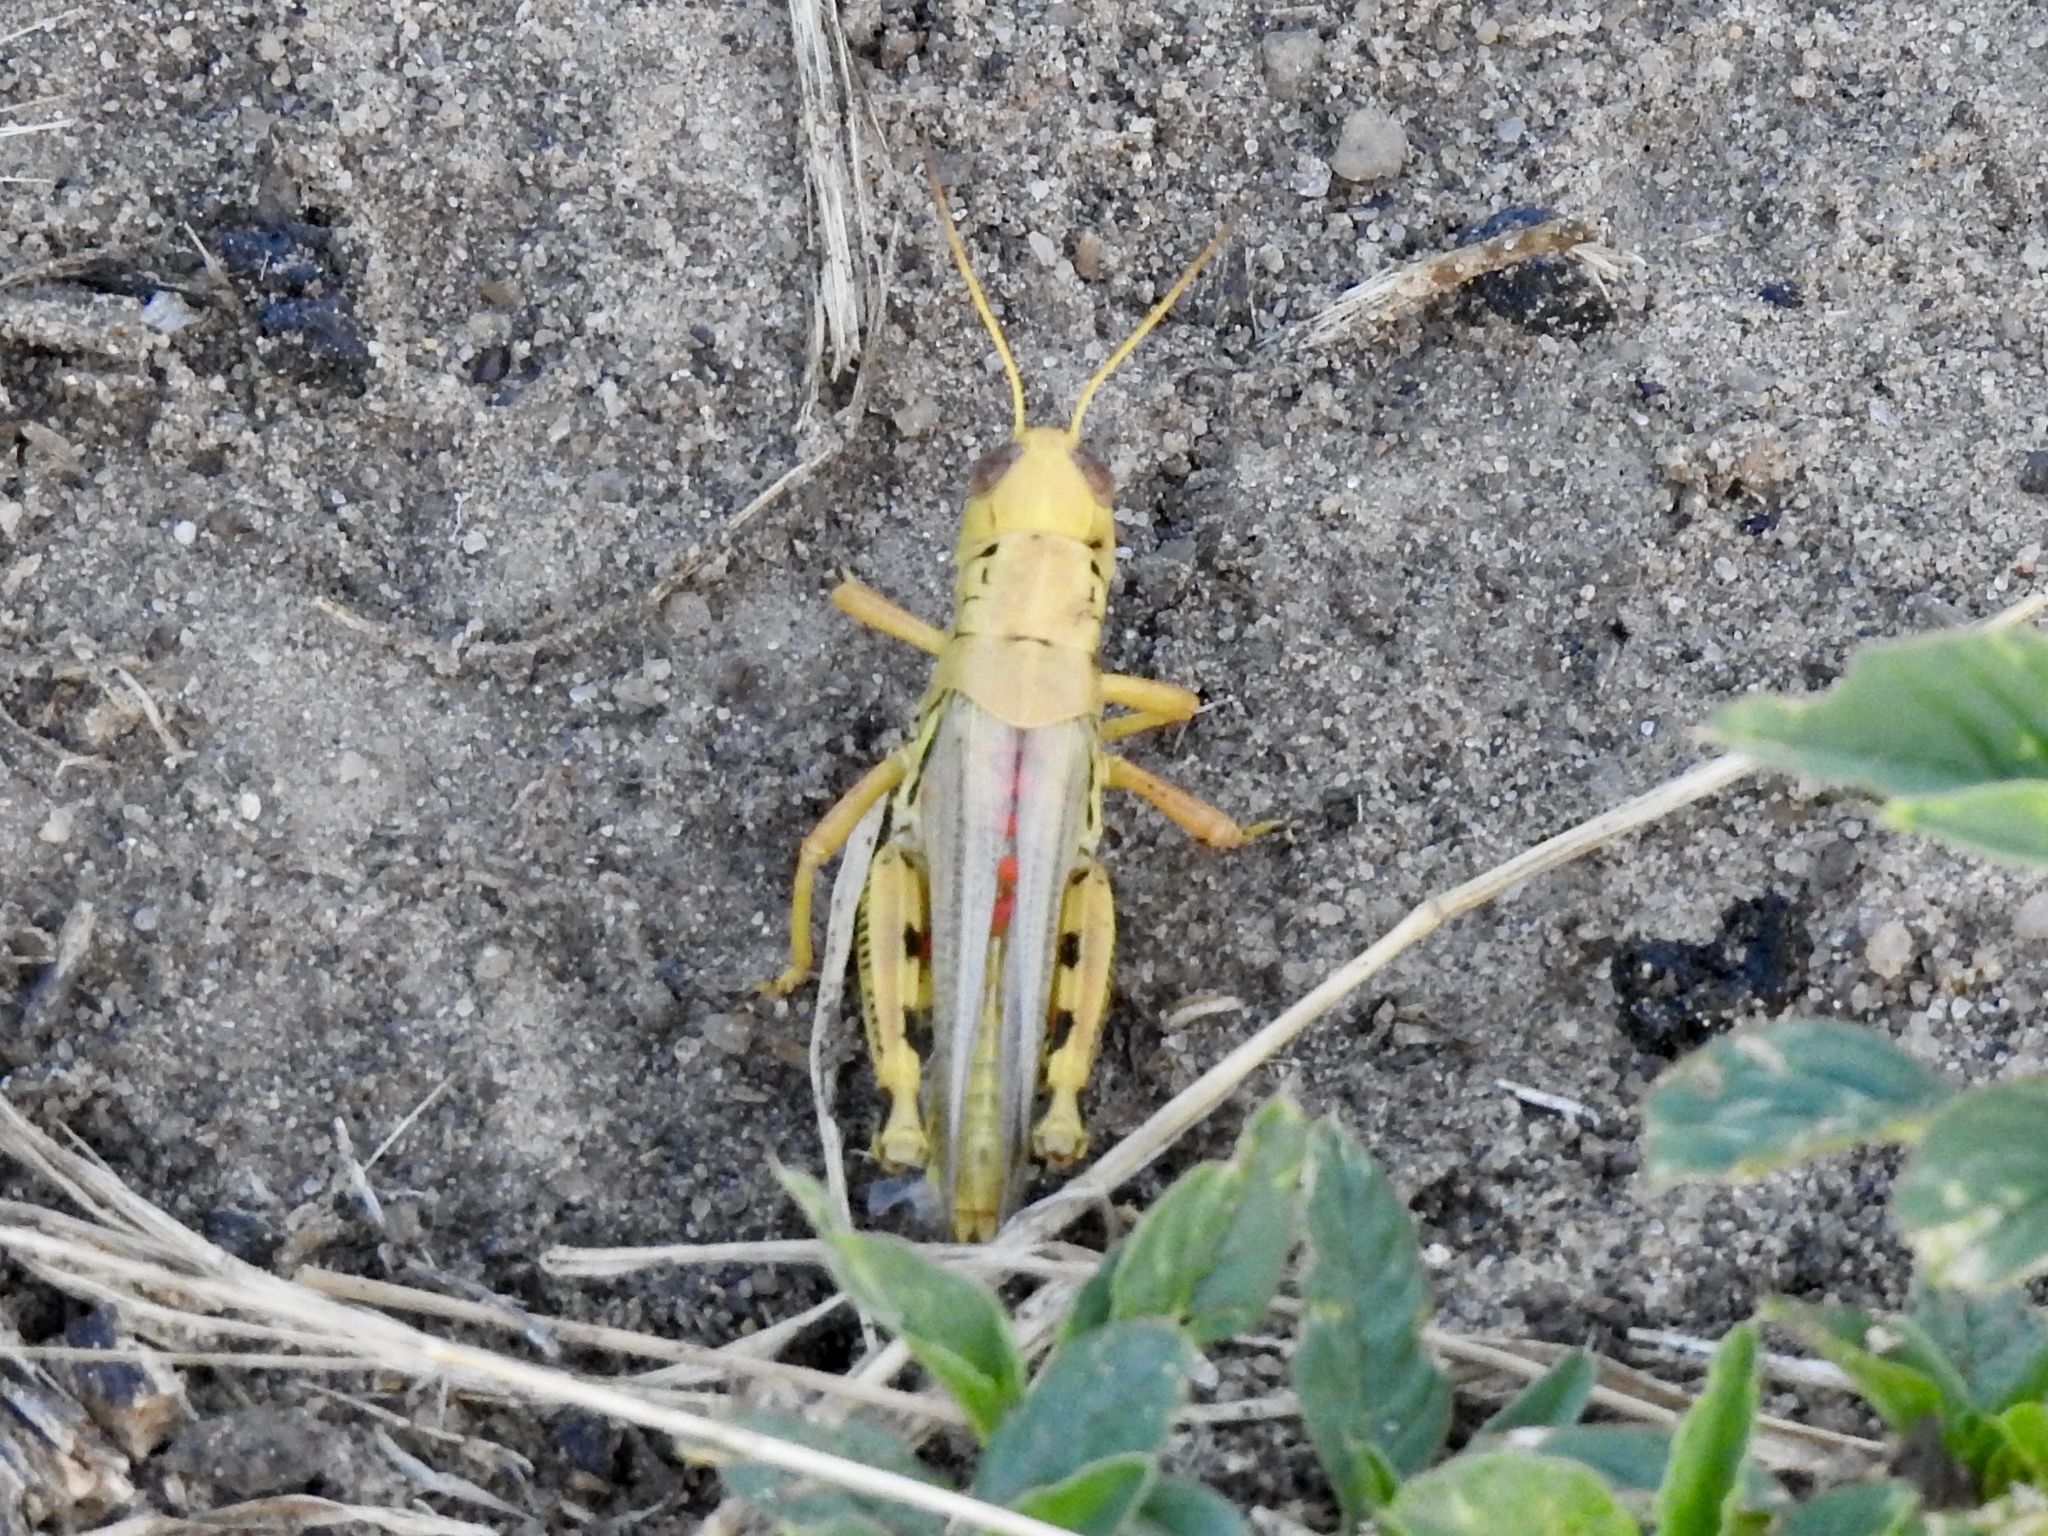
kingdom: Animalia
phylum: Arthropoda
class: Insecta
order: Orthoptera
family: Acrididae
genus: Melanoplus
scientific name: Melanoplus differentialis
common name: Differential grasshopper
